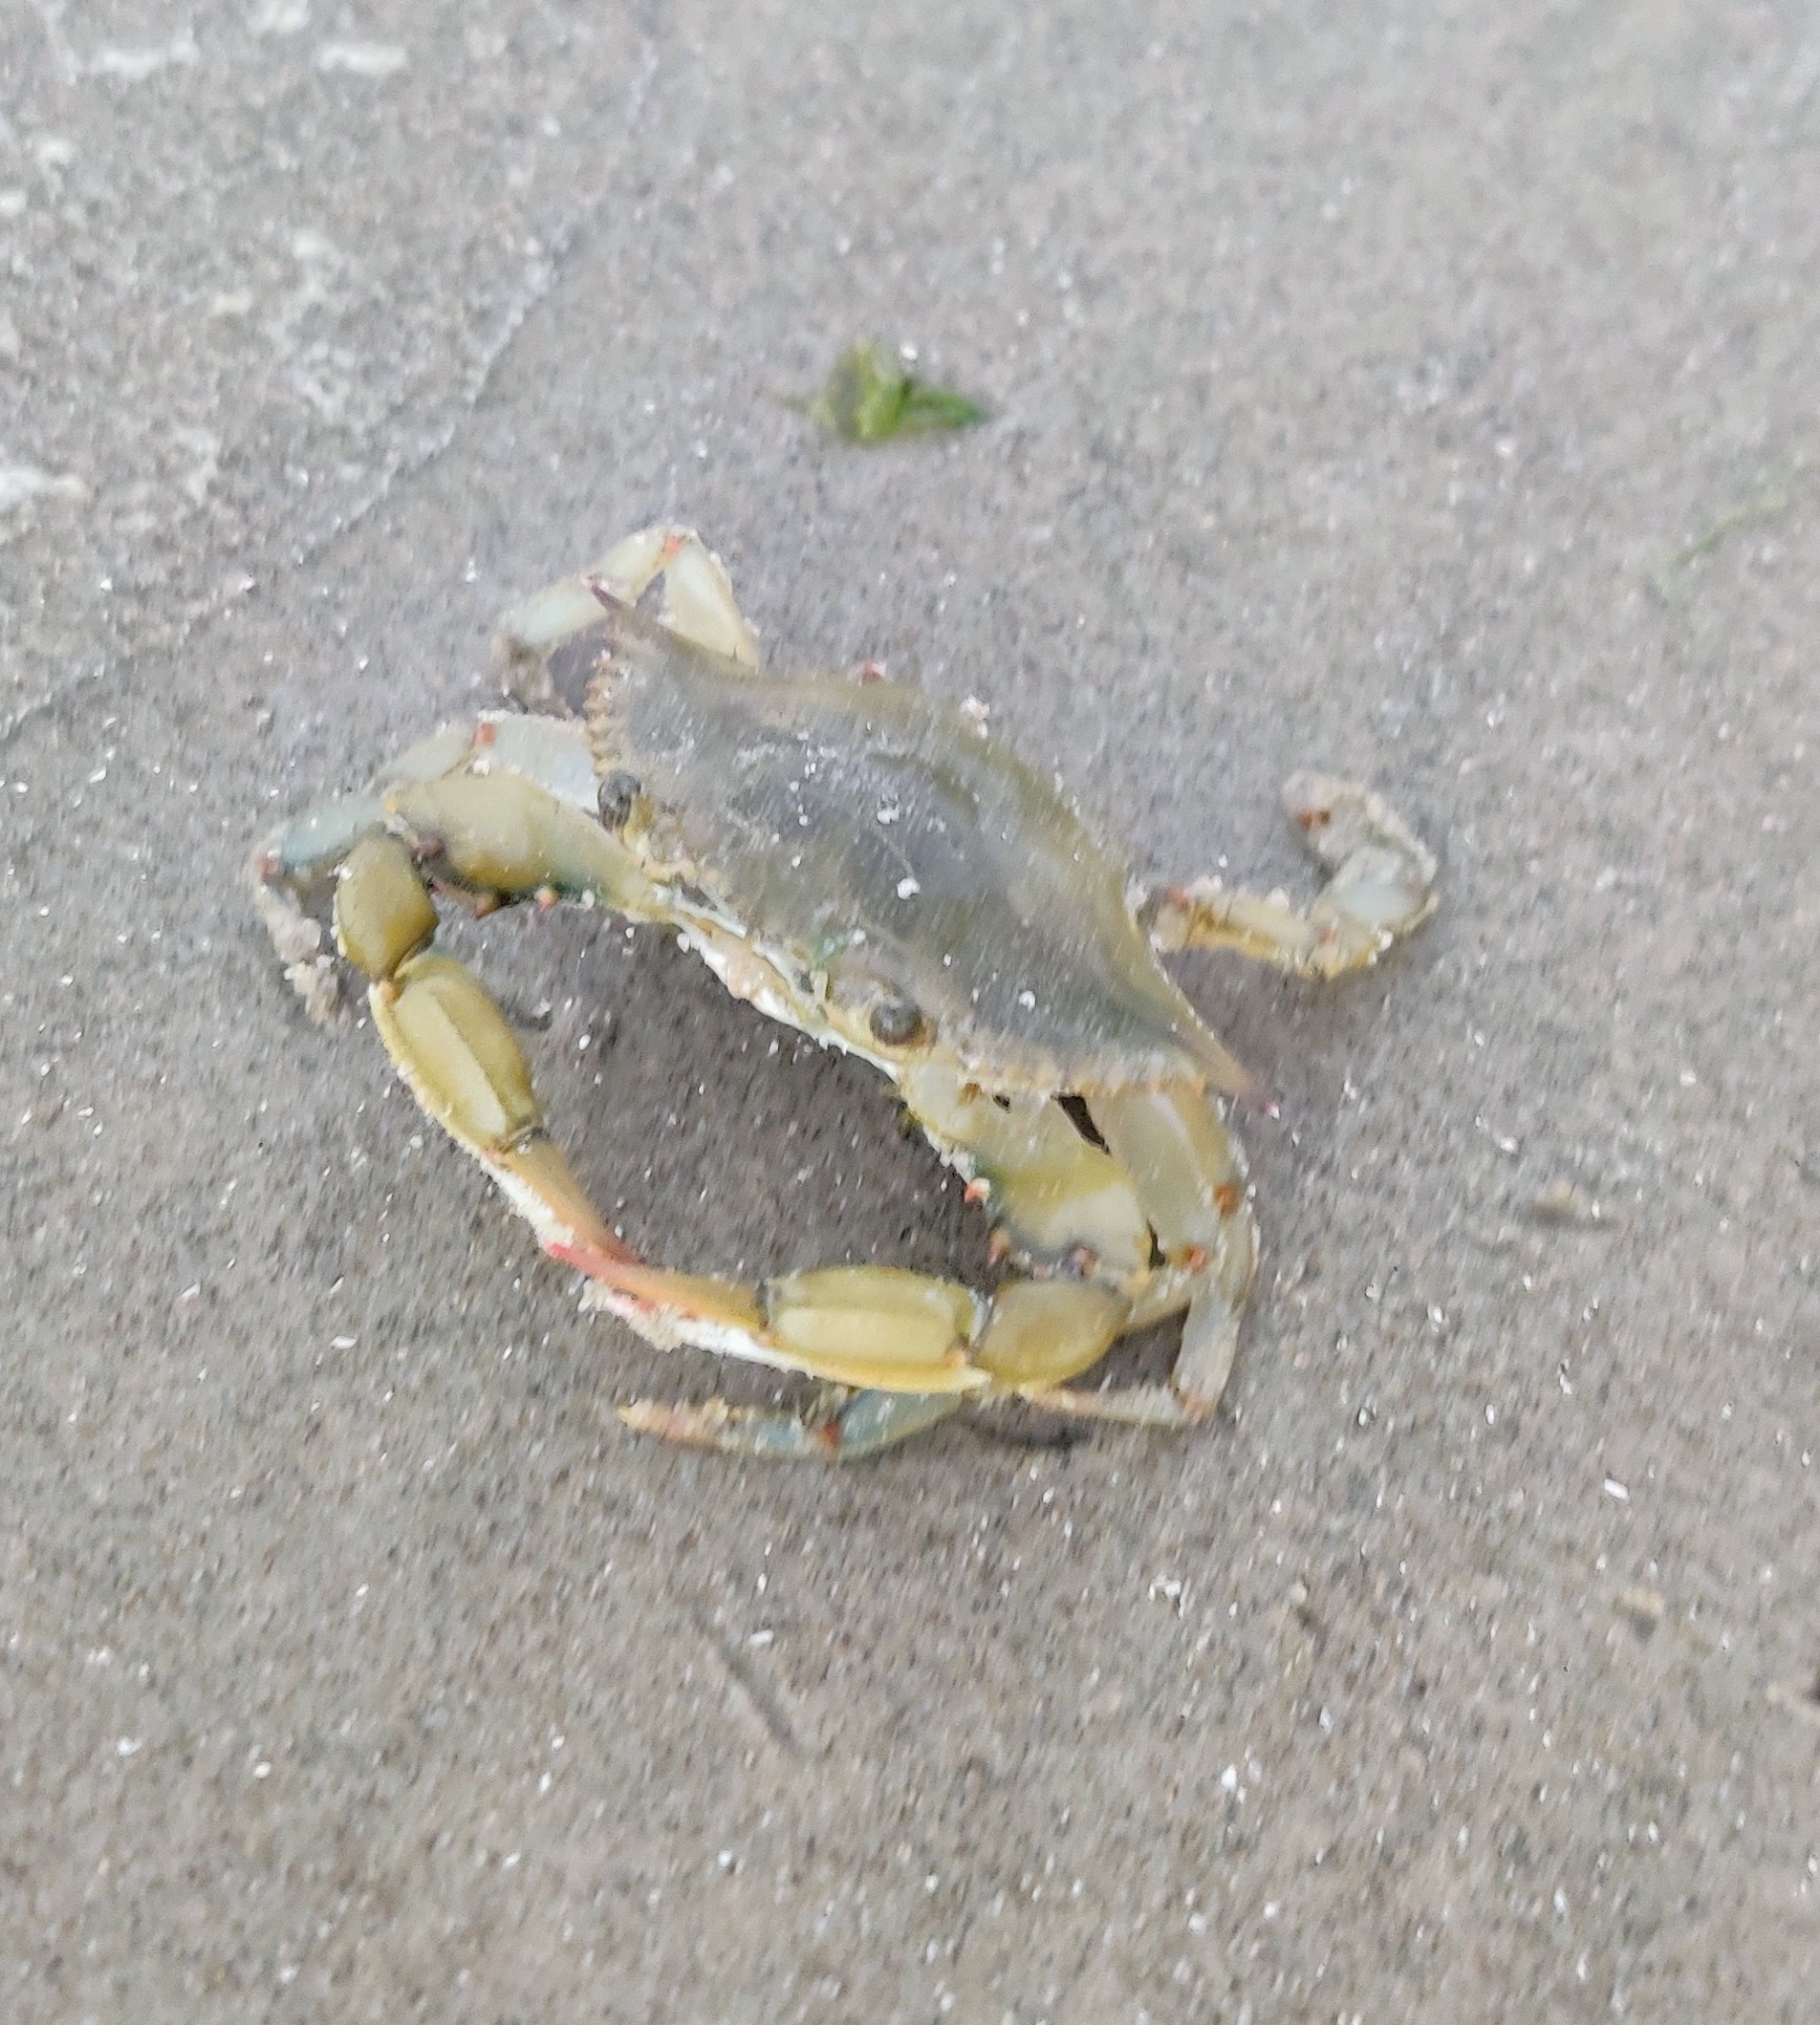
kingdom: Animalia
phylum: Arthropoda
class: Malacostraca
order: Decapoda
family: Portunidae
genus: Callinectes
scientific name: Callinectes sapidus
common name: Blue crab
